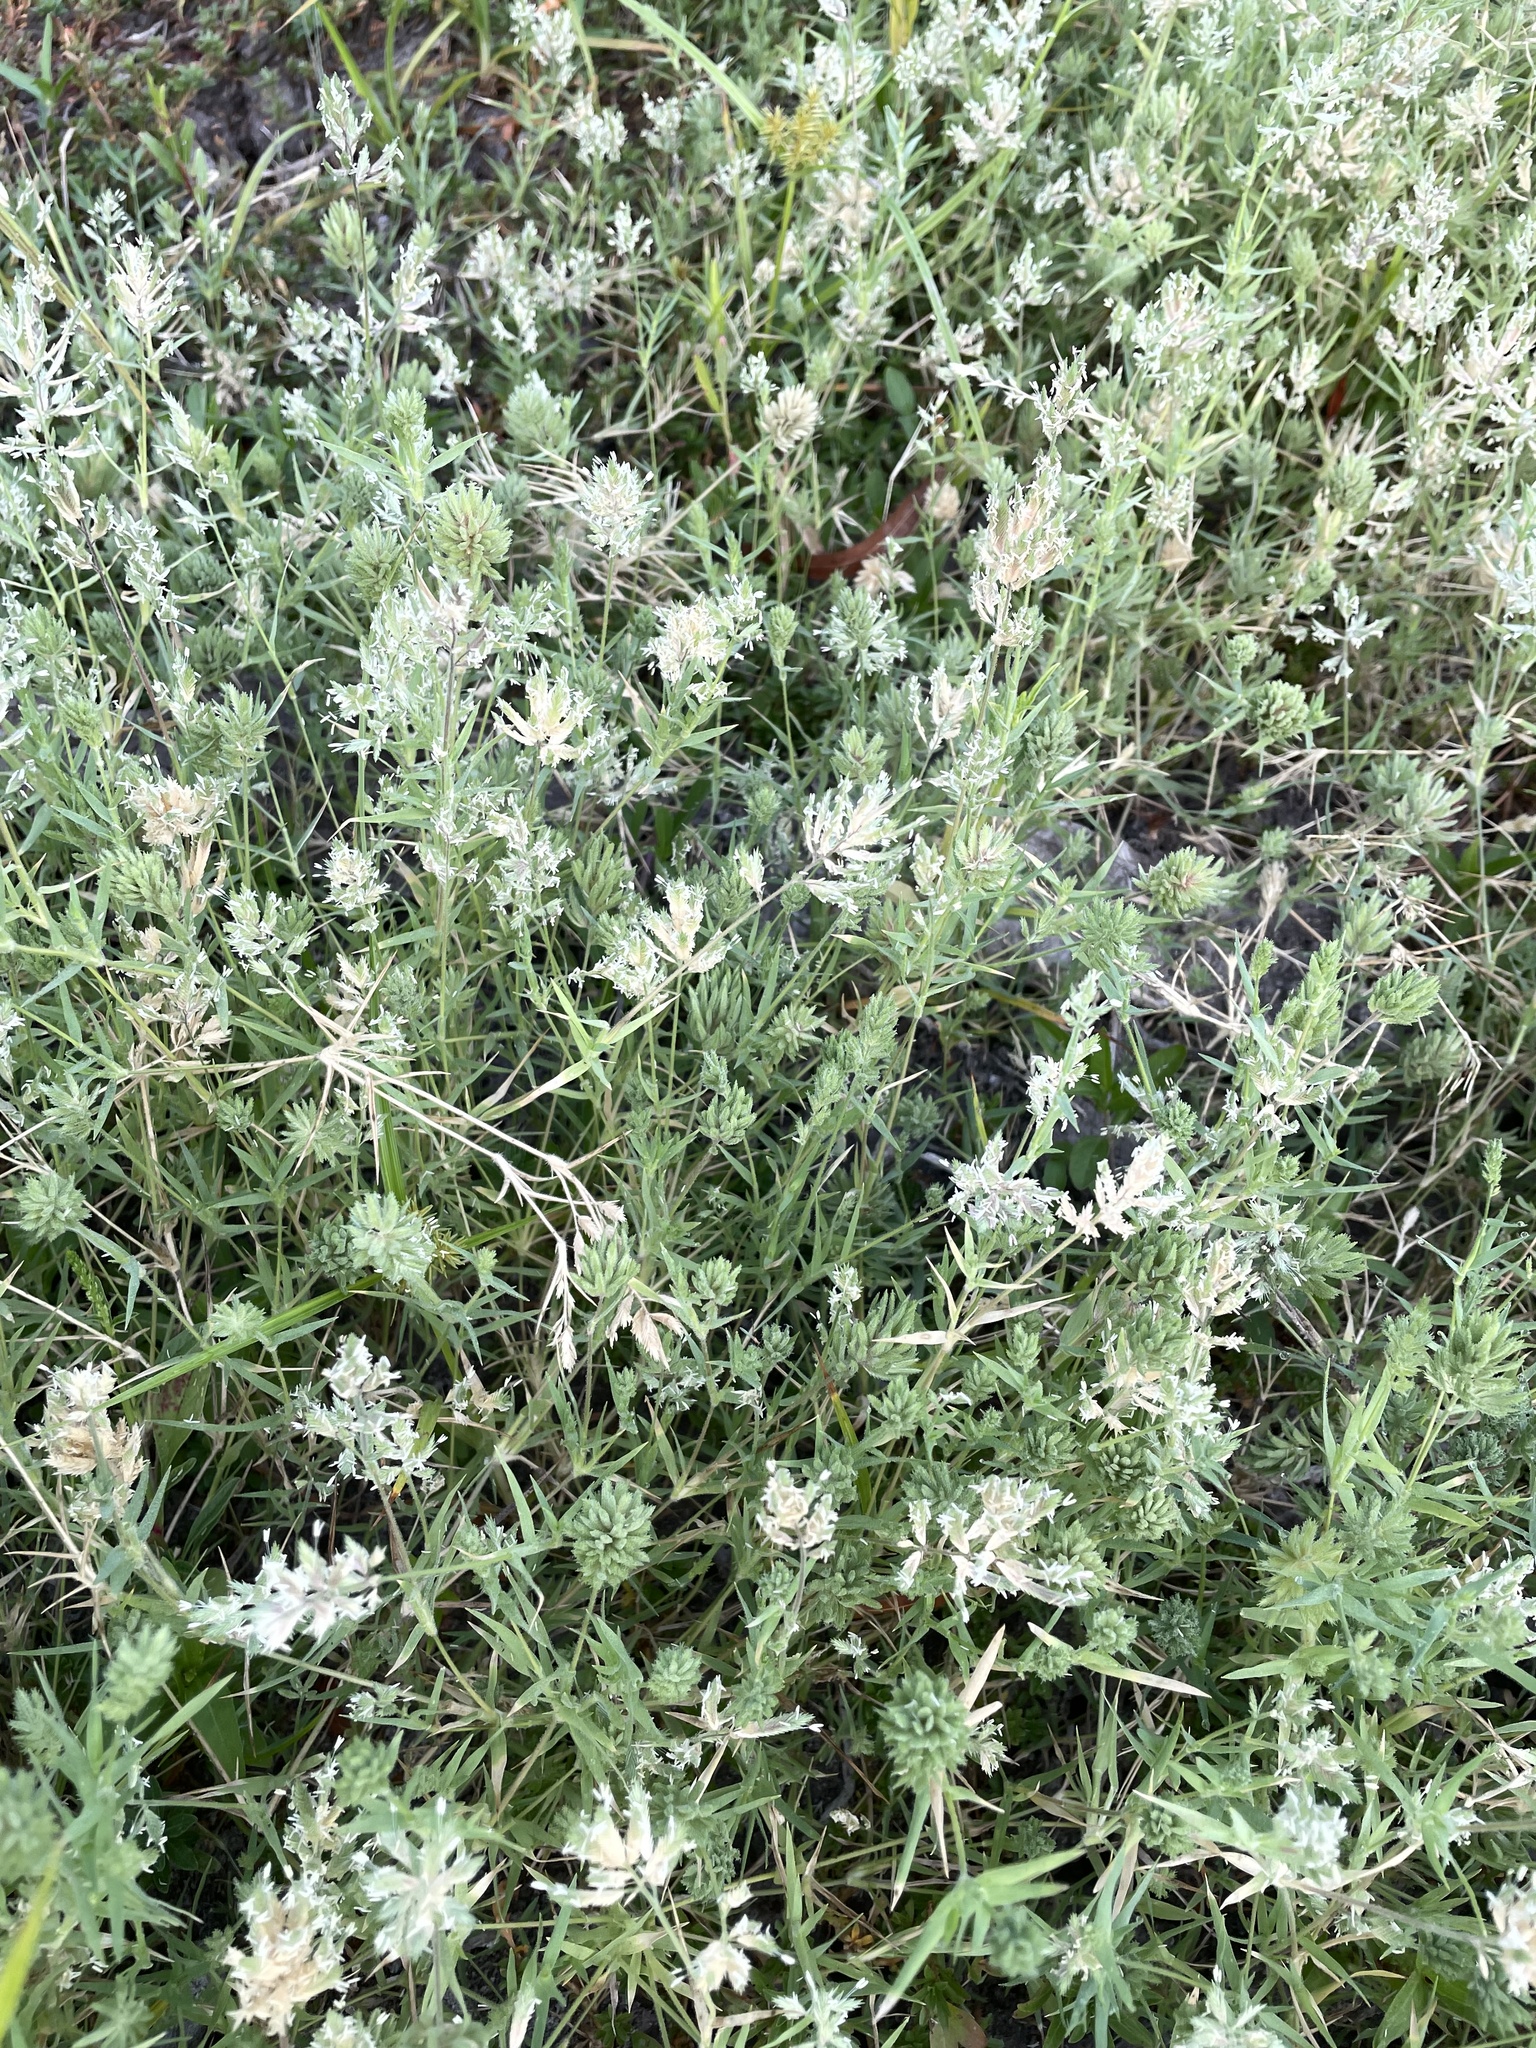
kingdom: Plantae
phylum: Tracheophyta
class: Liliopsida
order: Poales
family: Poaceae
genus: Eragrostis
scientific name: Eragrostis reptans
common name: Creeping love grass
